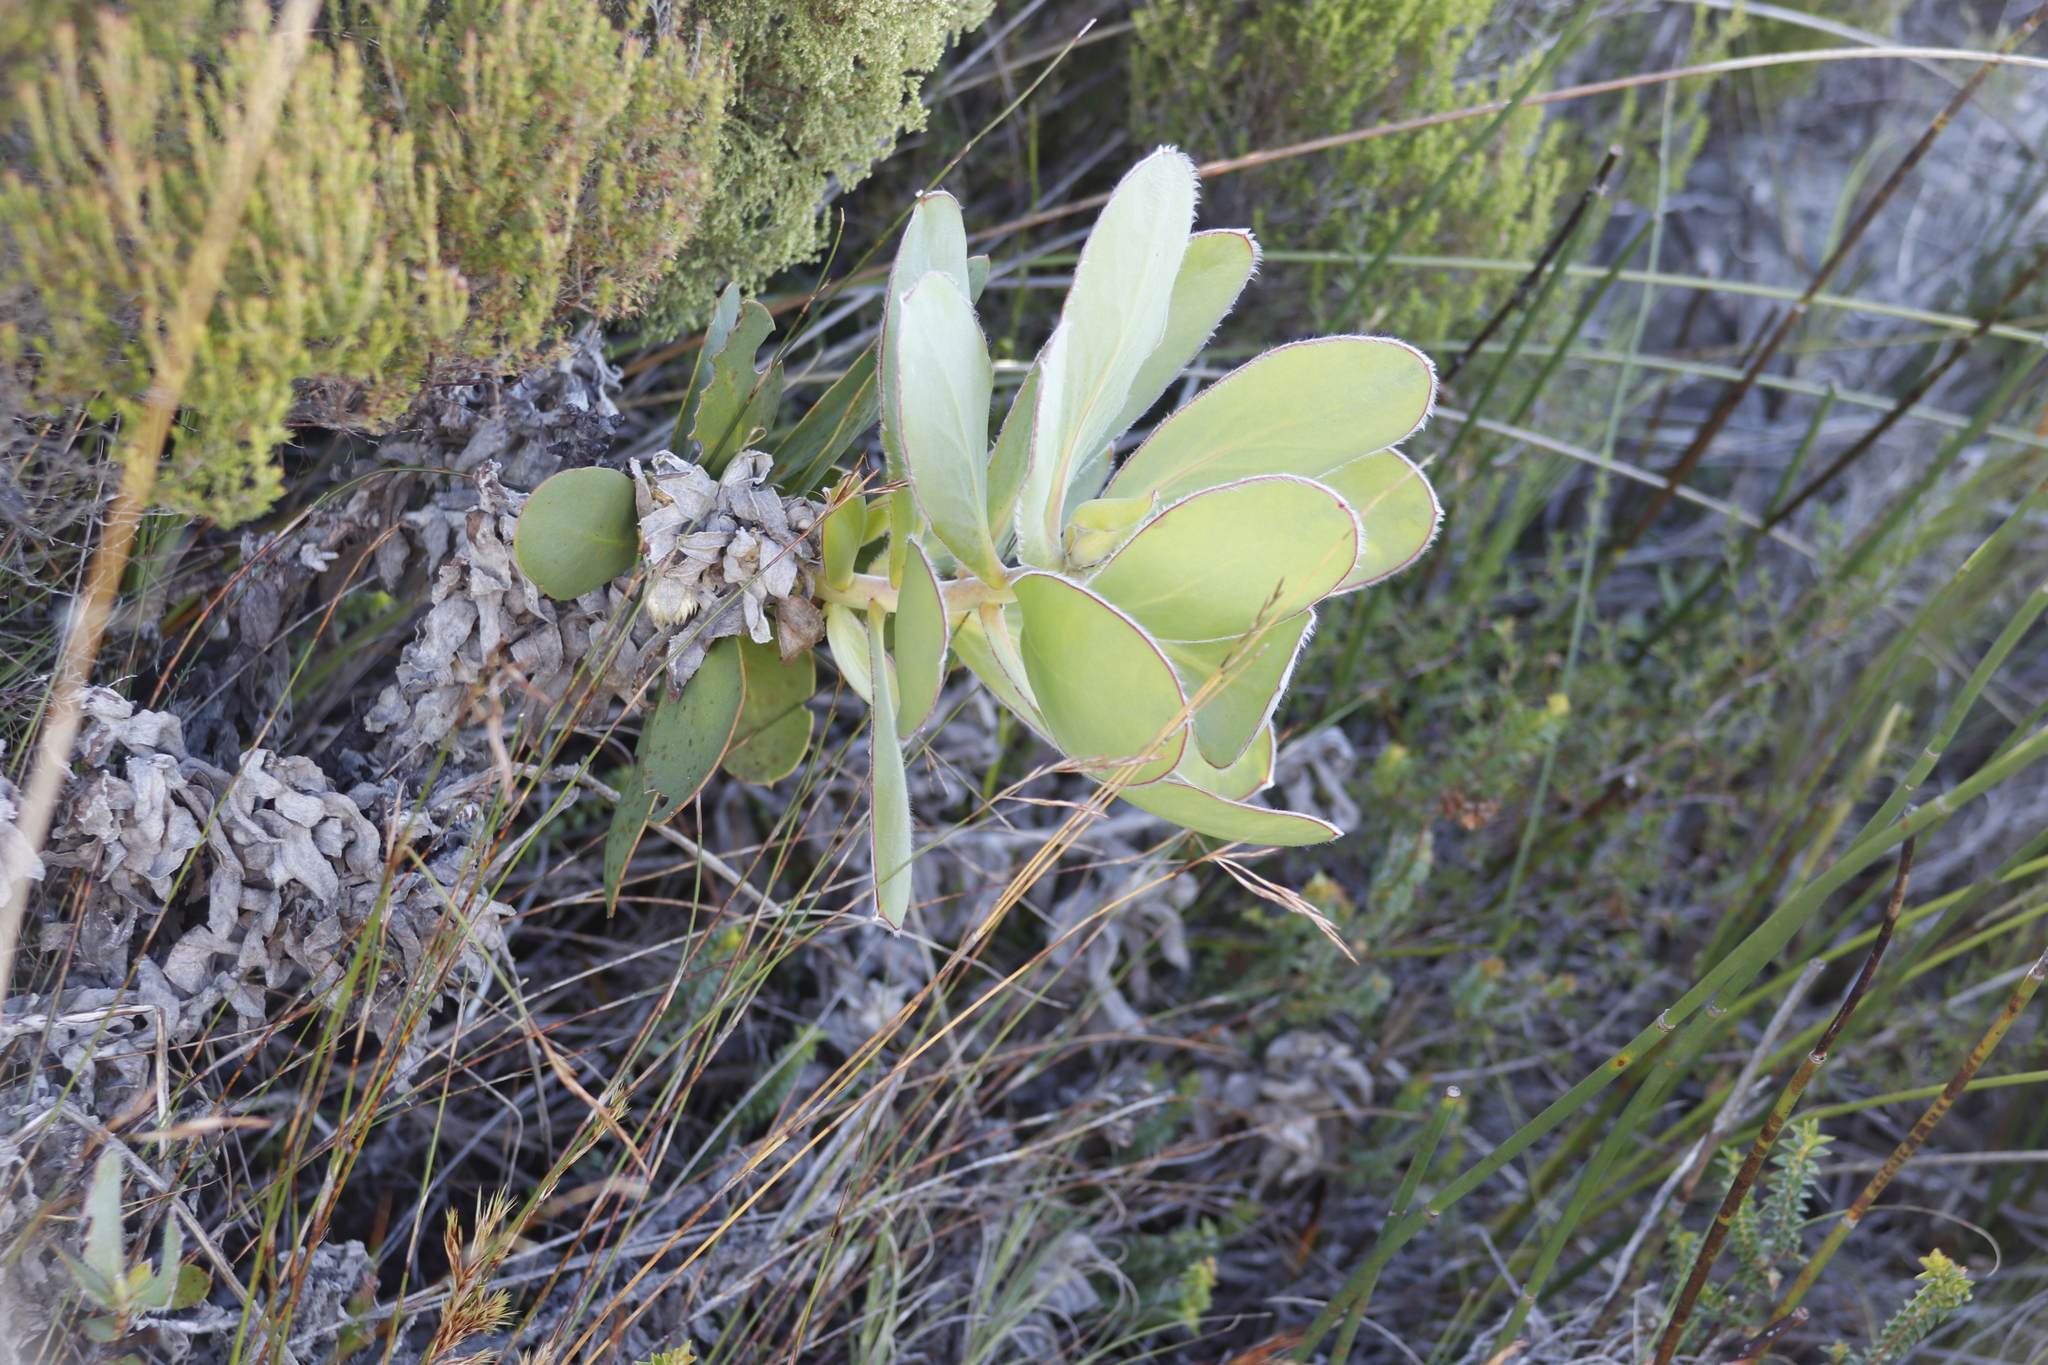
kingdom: Plantae
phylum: Tracheophyta
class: Magnoliopsida
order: Proteales
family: Proteaceae
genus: Protea
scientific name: Protea speciosa
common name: Brown-beard sugarbush
